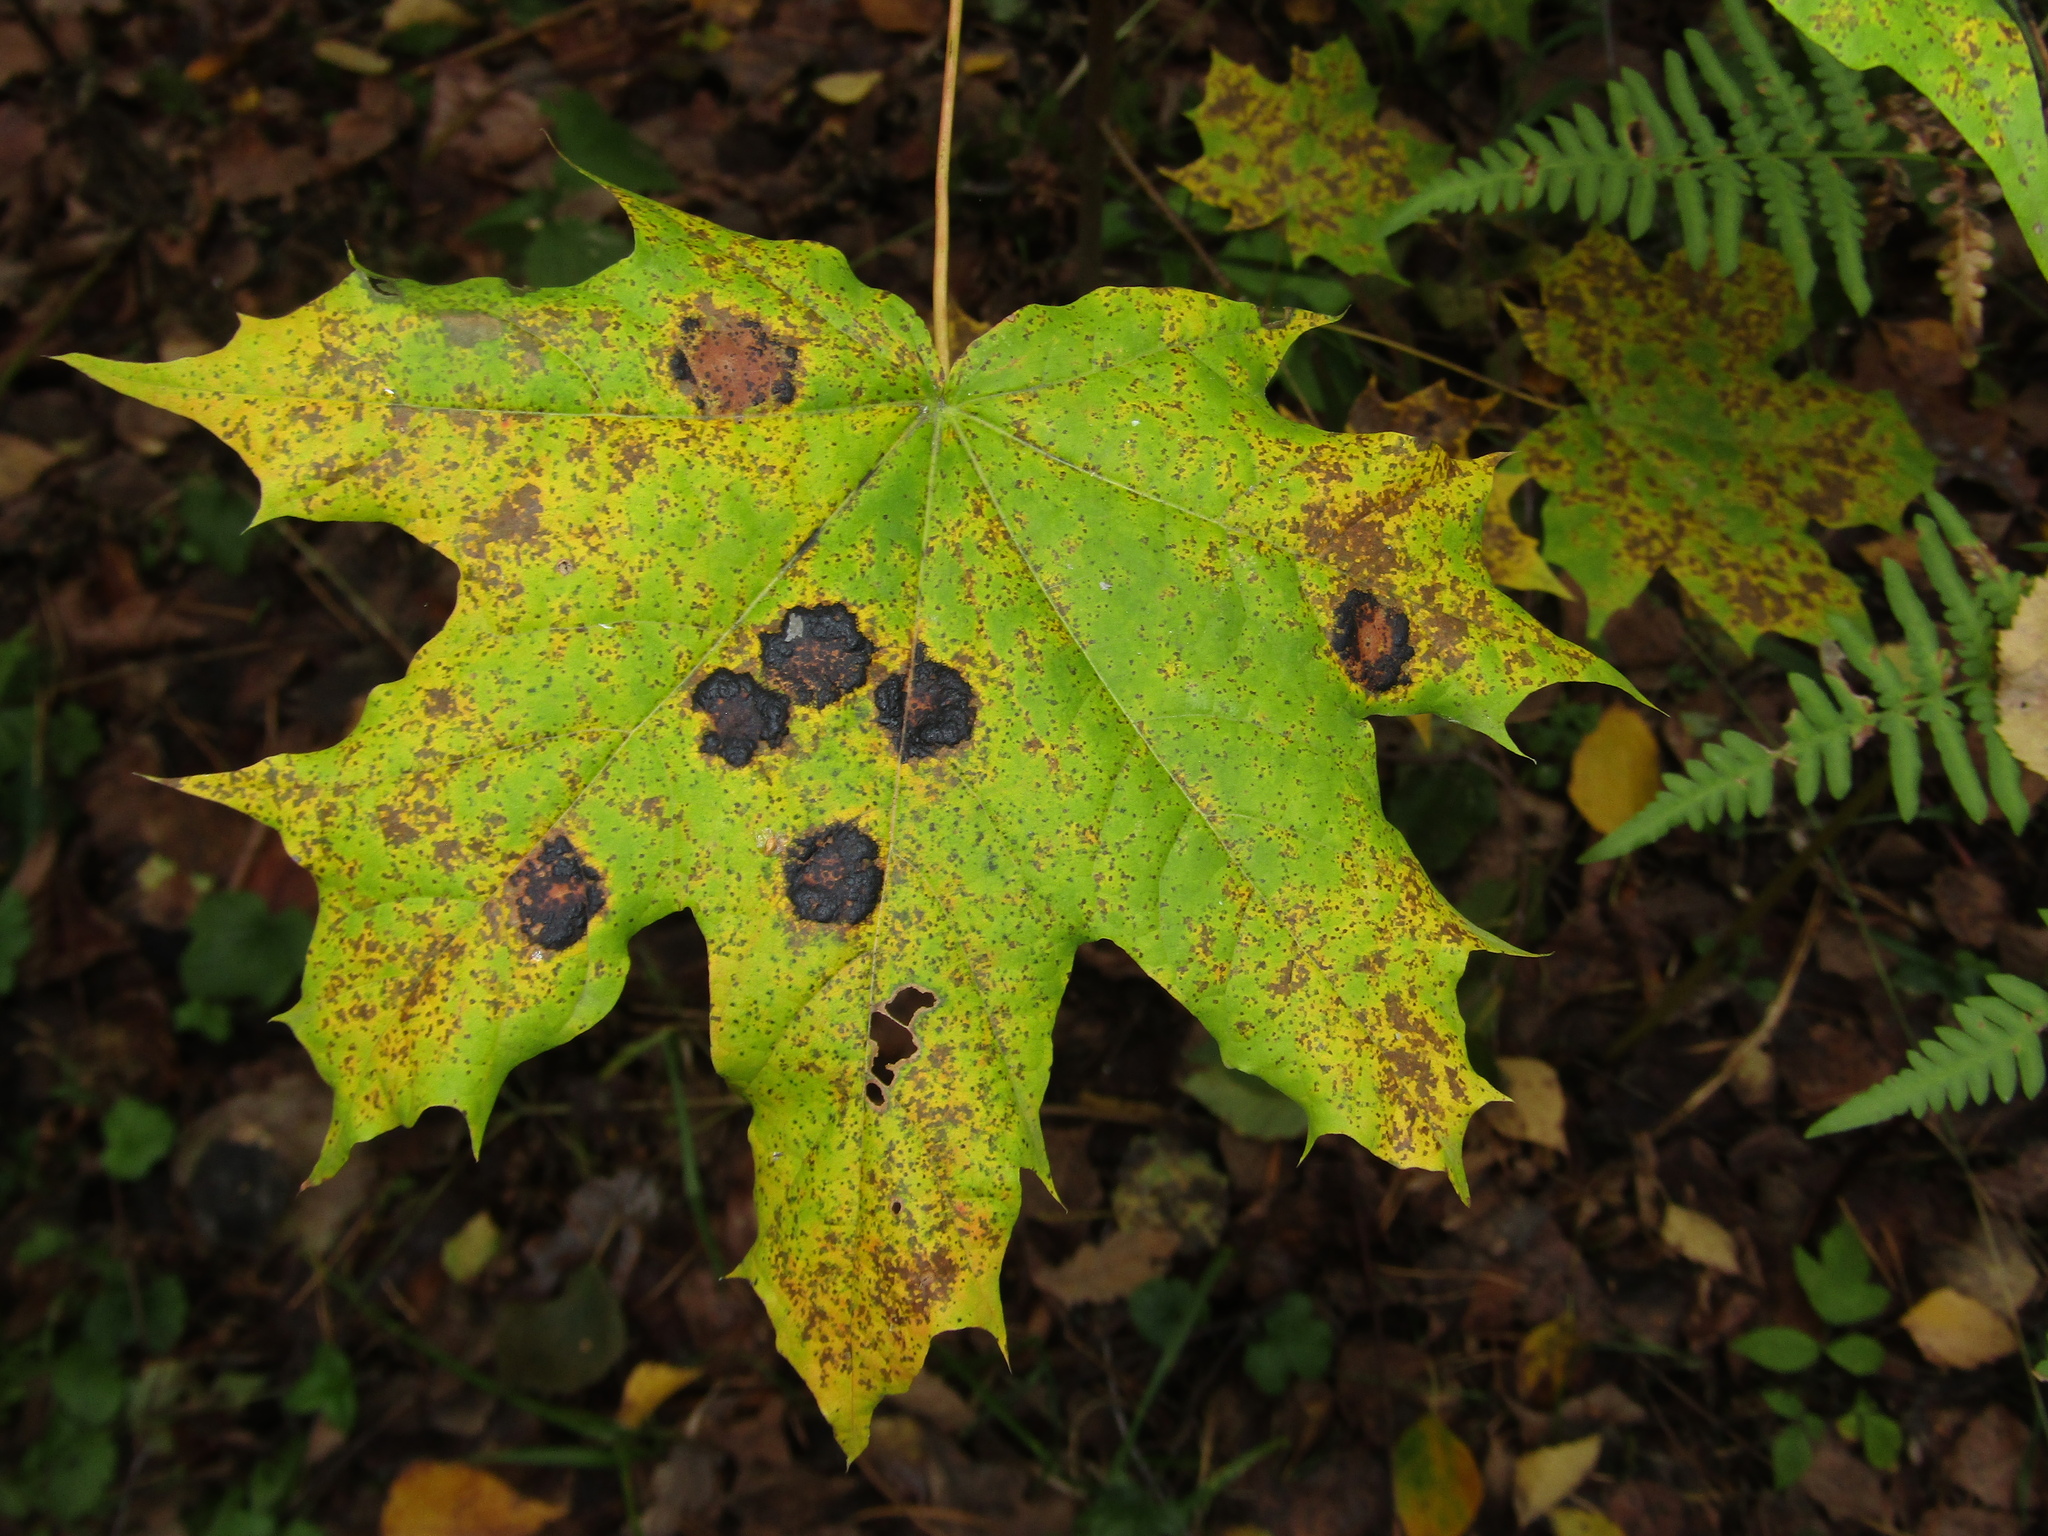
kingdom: Plantae
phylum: Tracheophyta
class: Magnoliopsida
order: Sapindales
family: Sapindaceae
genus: Acer
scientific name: Acer platanoides
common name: Norway maple
